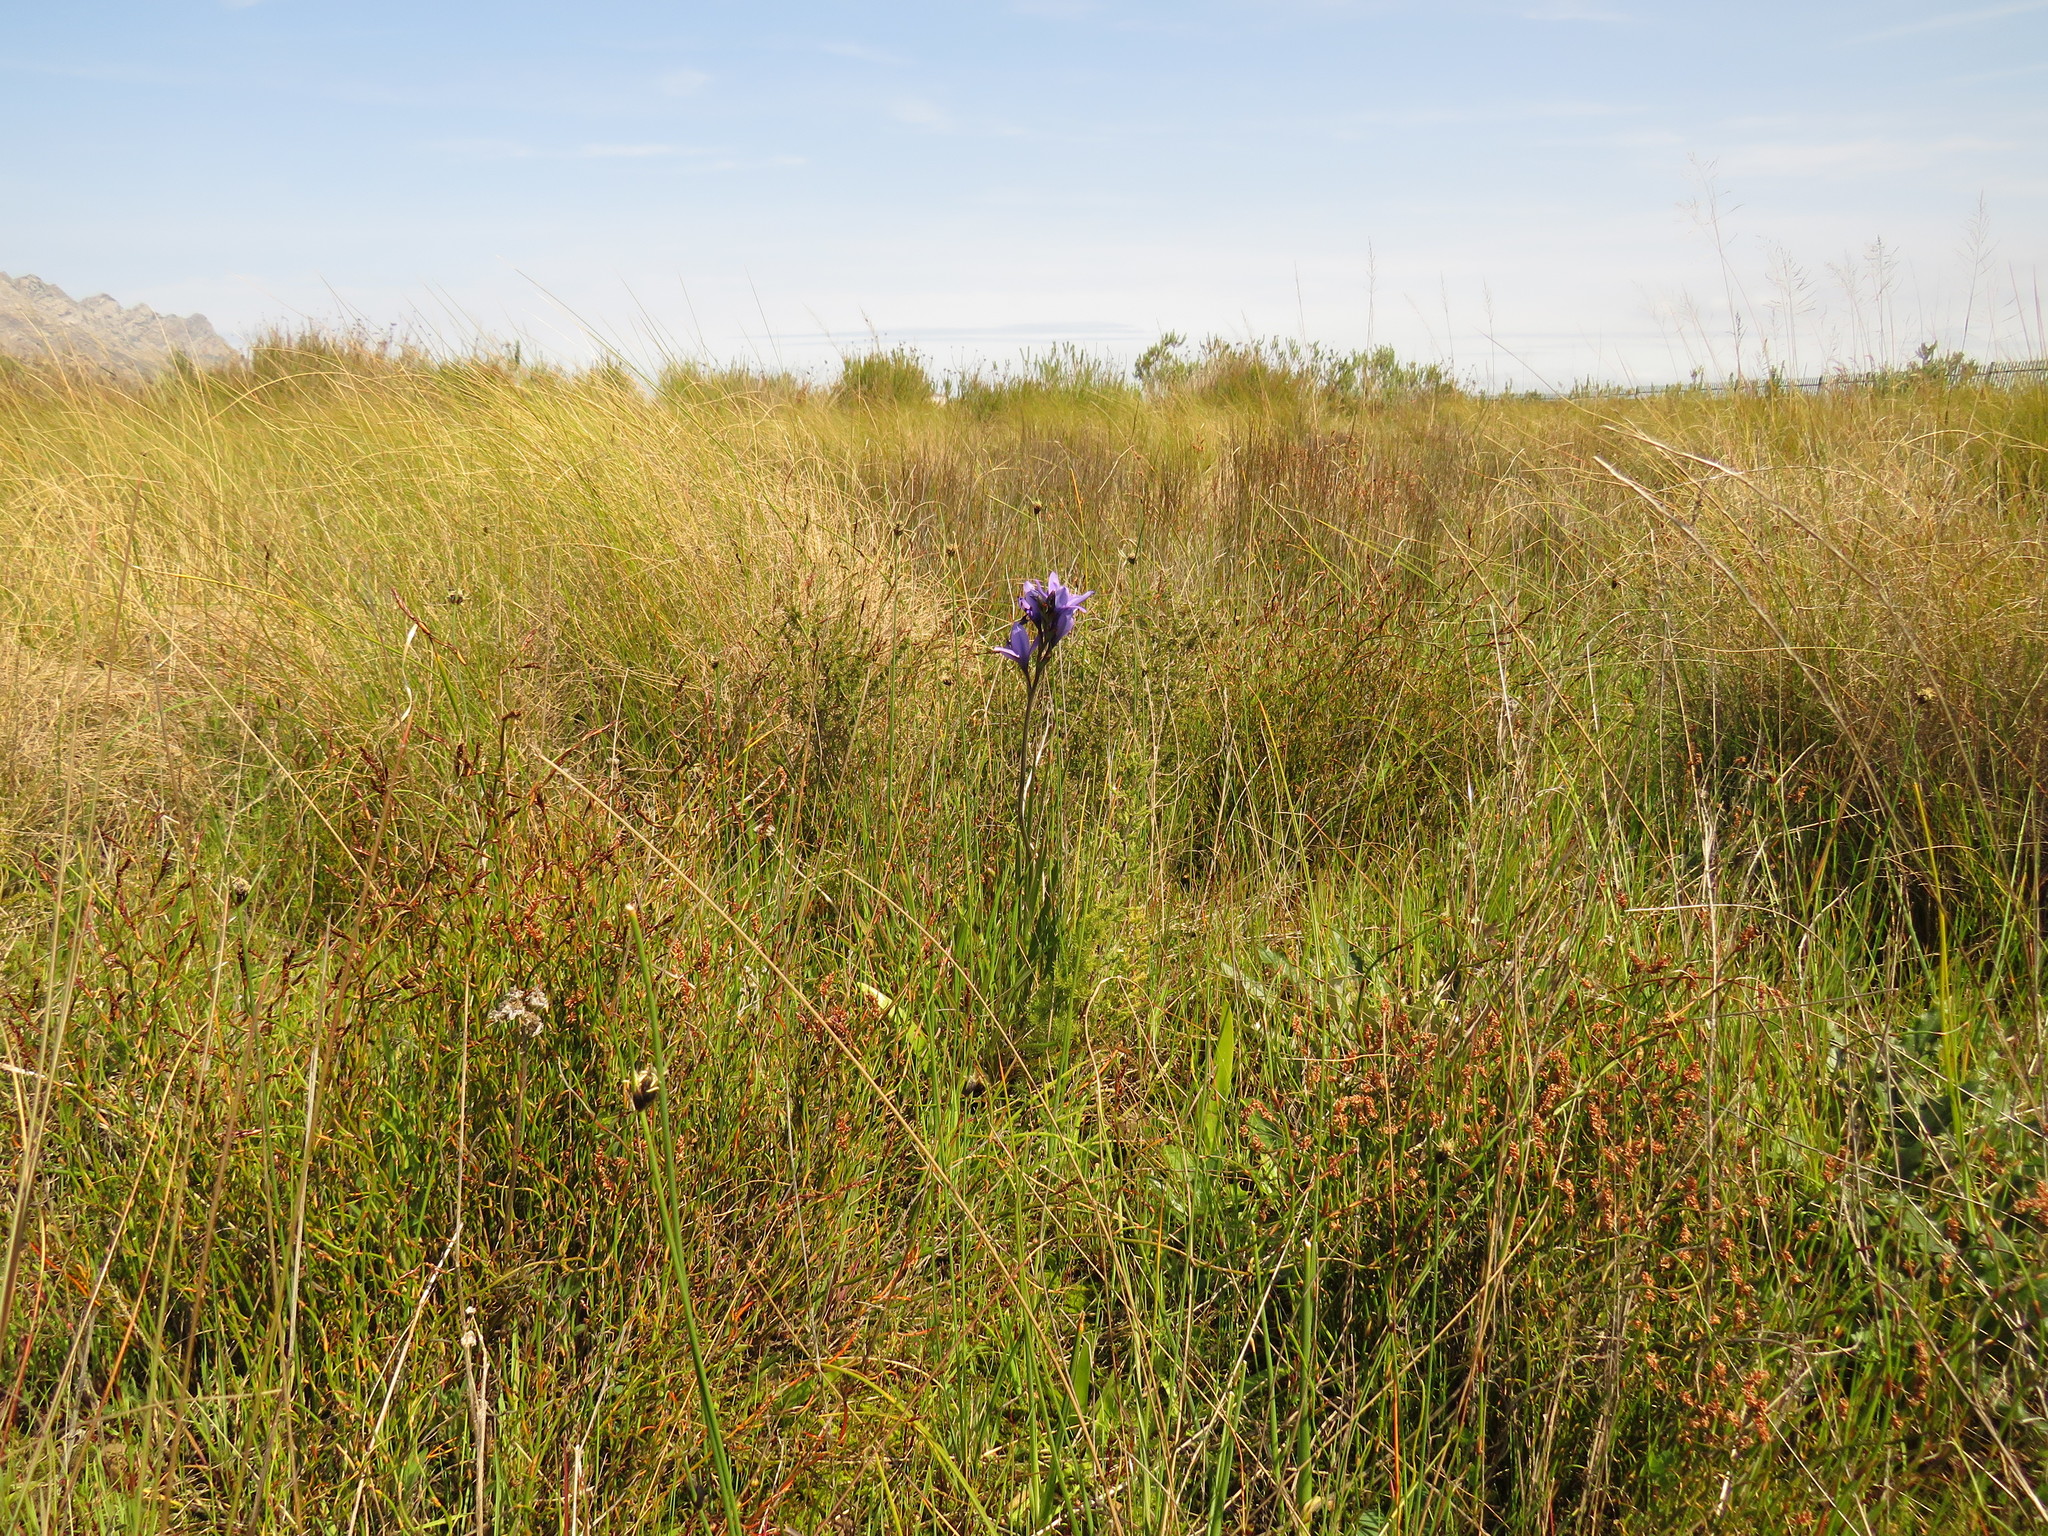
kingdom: Plantae
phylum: Tracheophyta
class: Liliopsida
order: Asparagales
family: Iridaceae
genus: Babiana
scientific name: Babiana angustifolia
